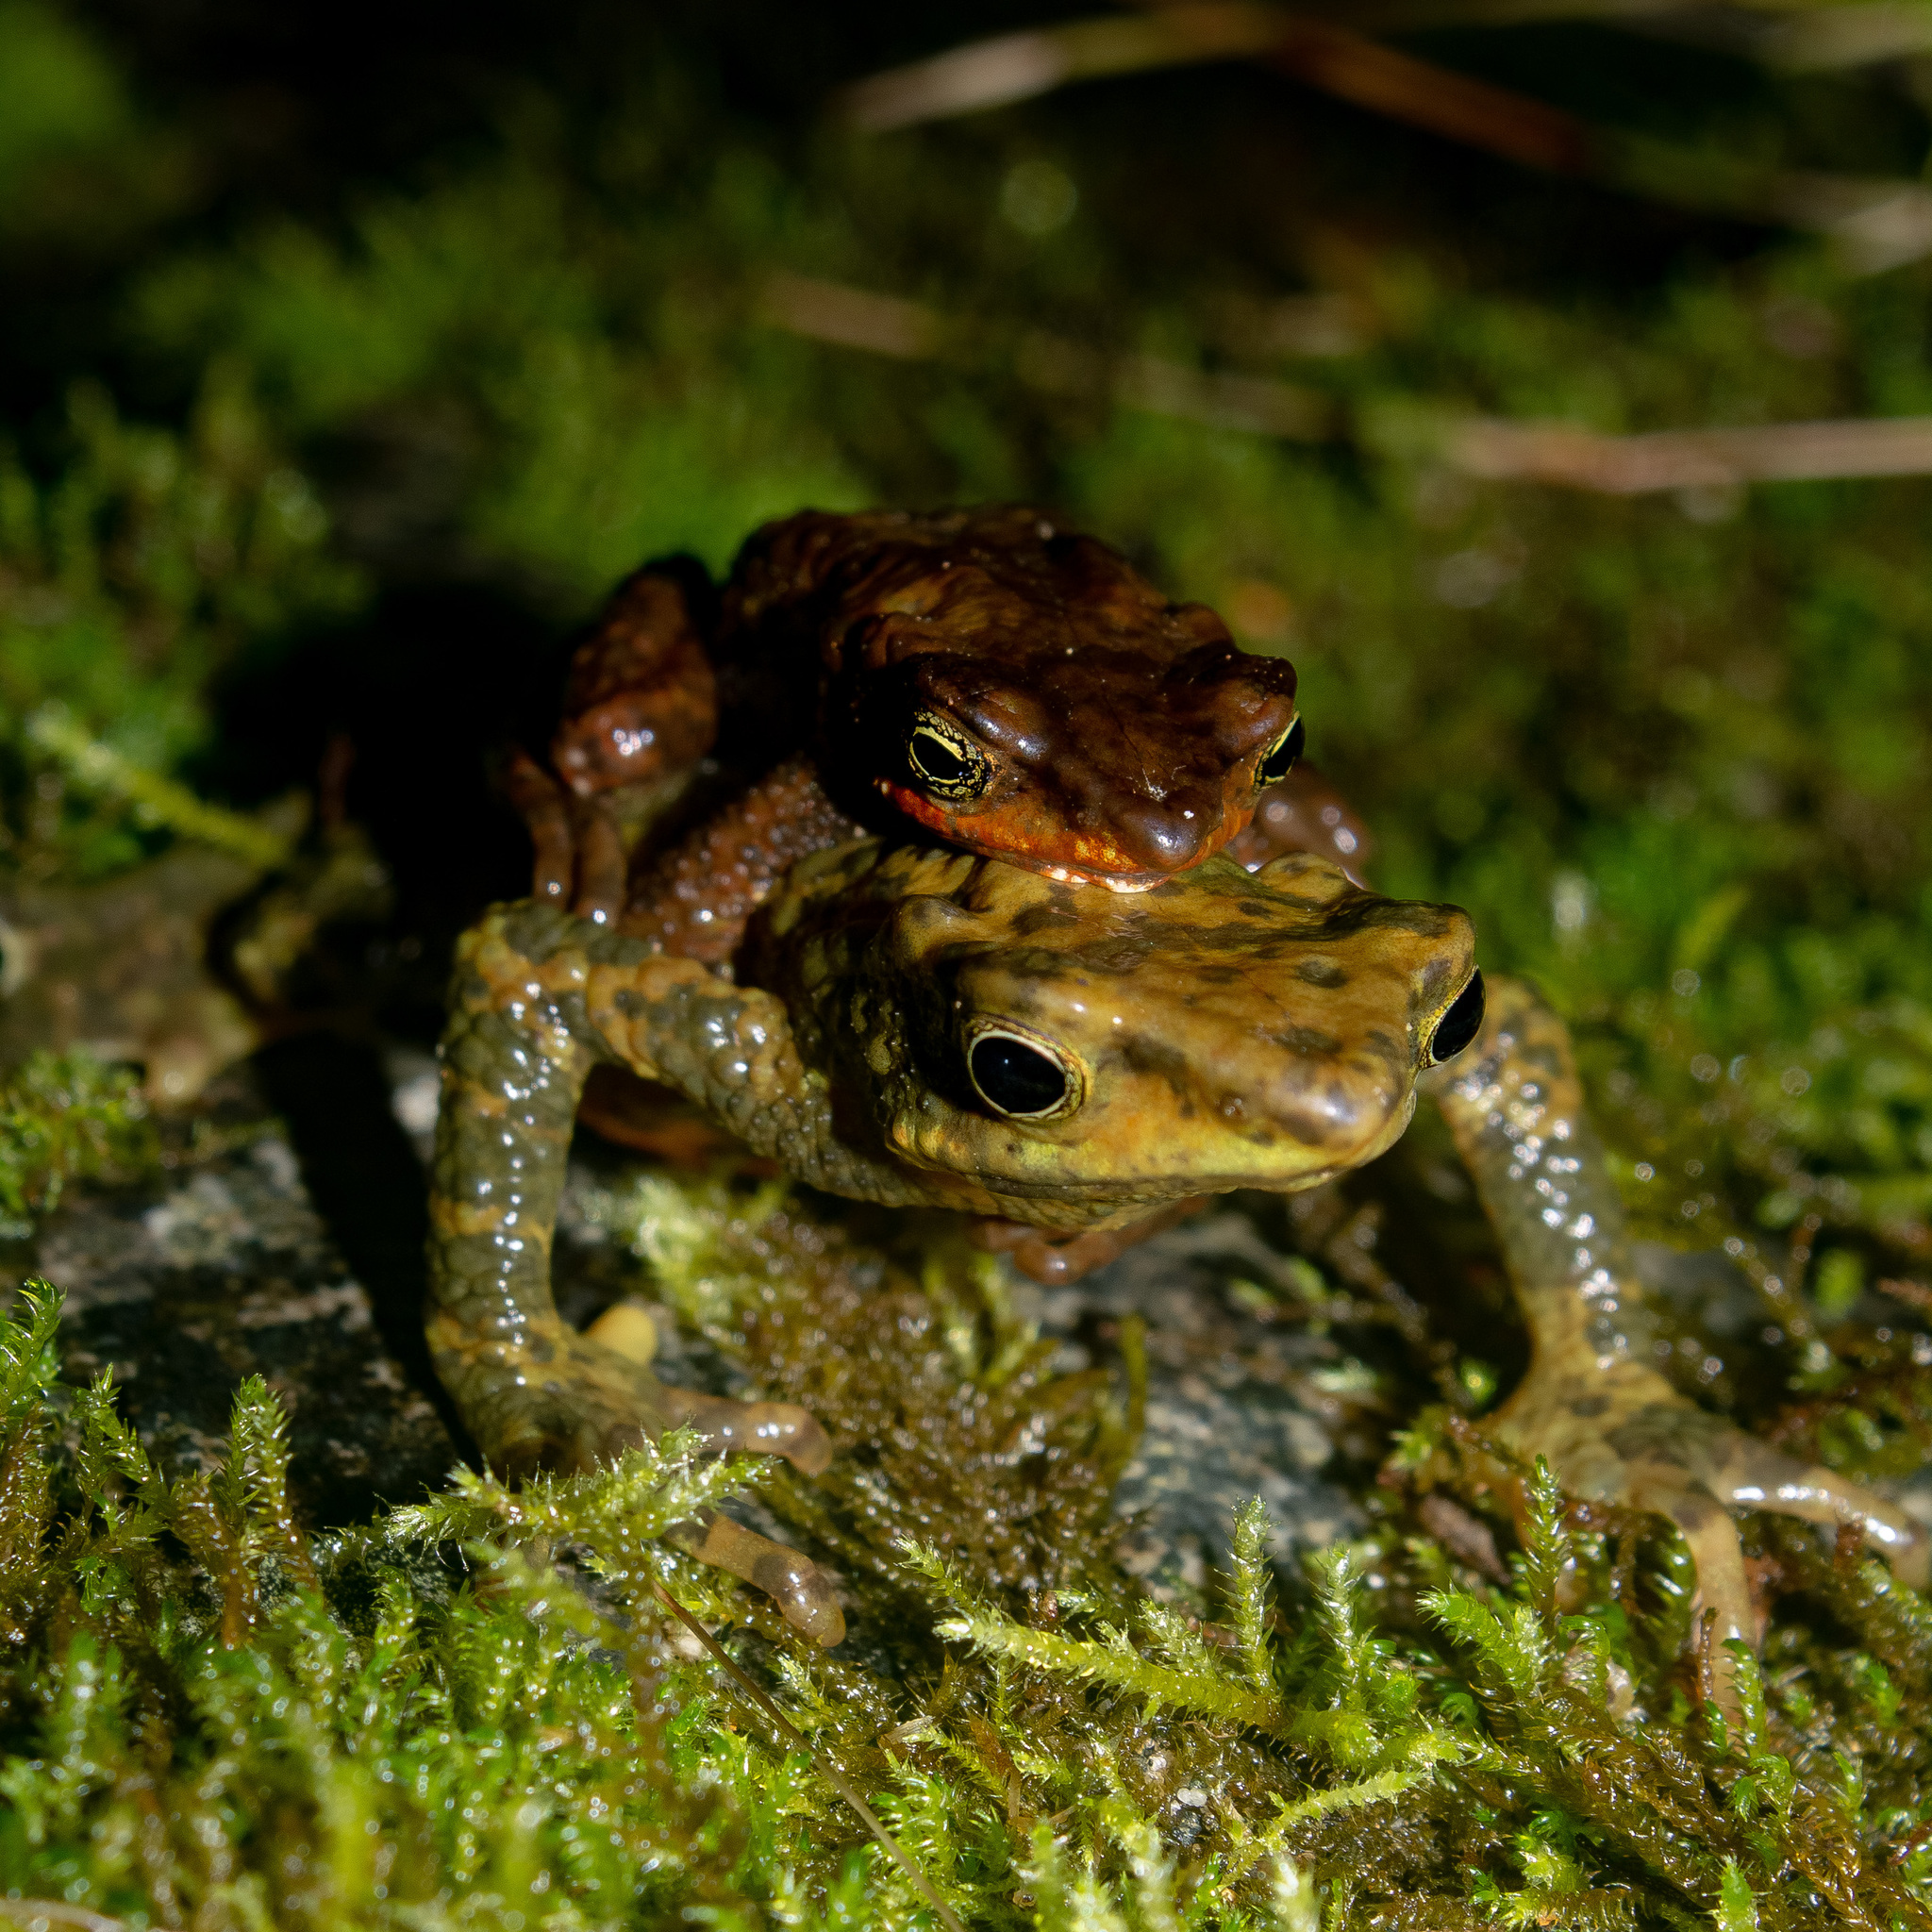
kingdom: Animalia
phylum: Chordata
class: Amphibia
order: Anura
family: Bufonidae
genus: Atelopus
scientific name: Atelopus laetissimus
